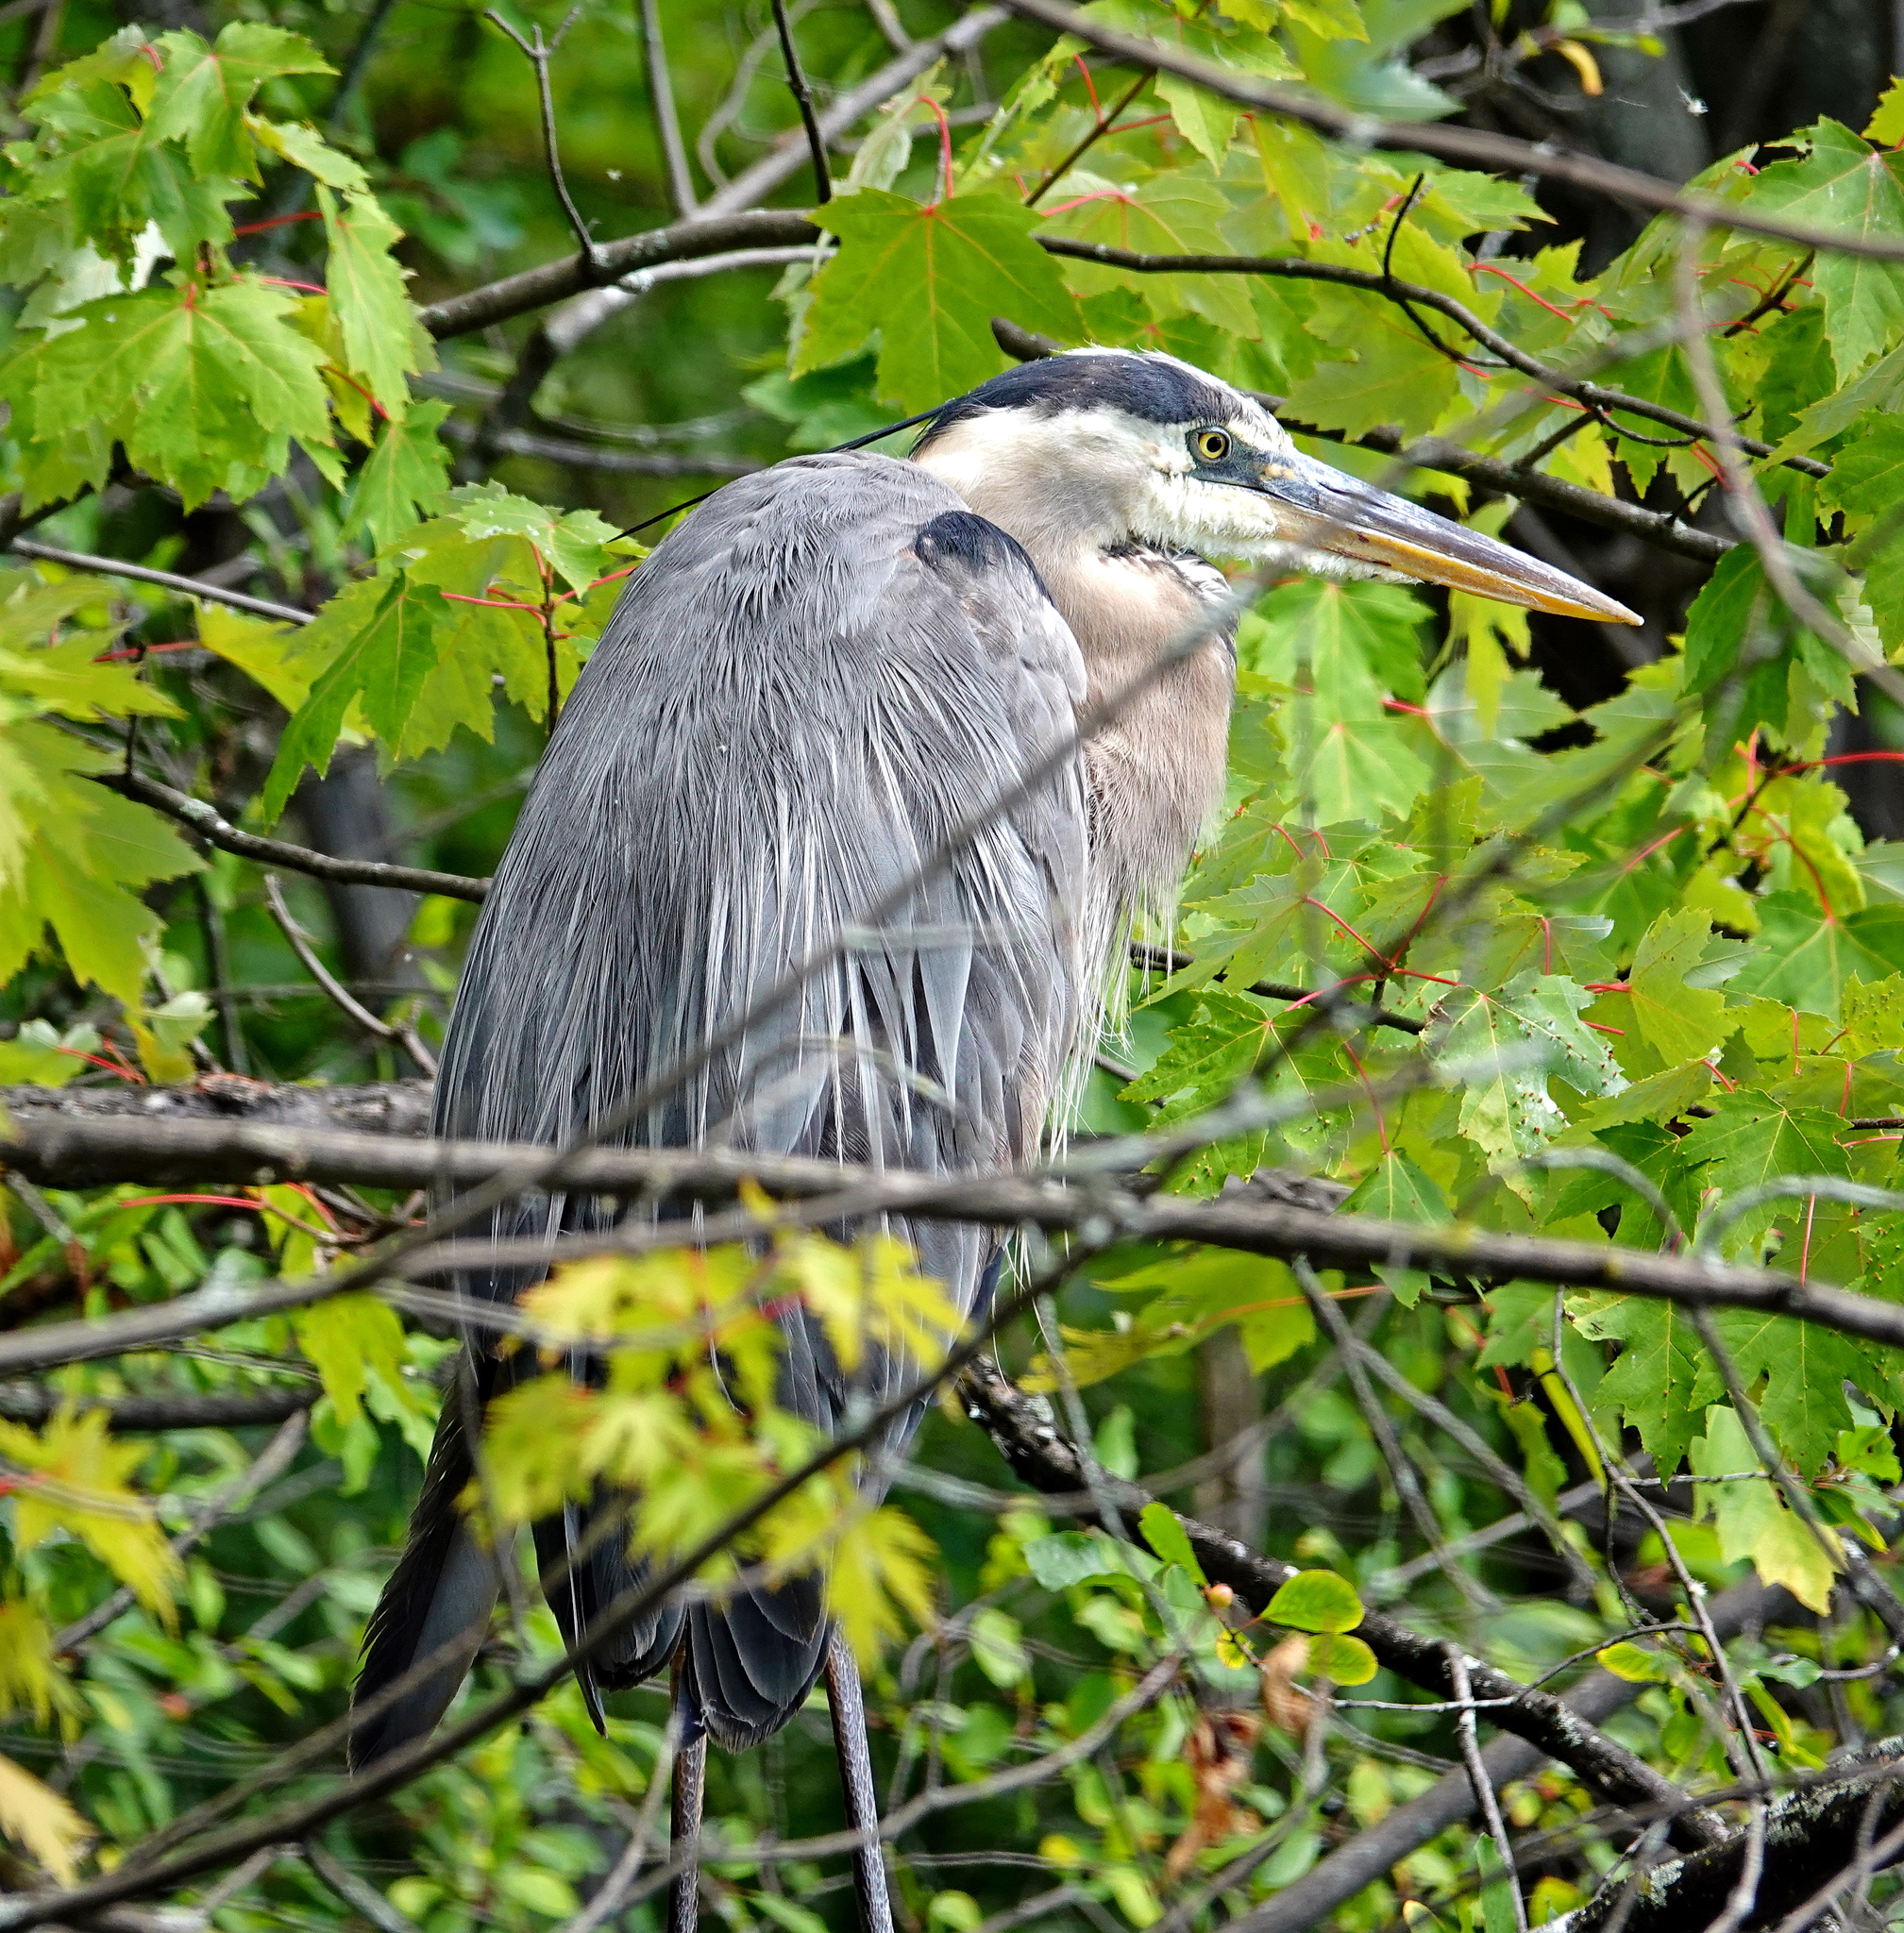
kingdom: Animalia
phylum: Chordata
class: Aves
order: Pelecaniformes
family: Ardeidae
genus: Ardea
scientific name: Ardea herodias
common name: Great blue heron
